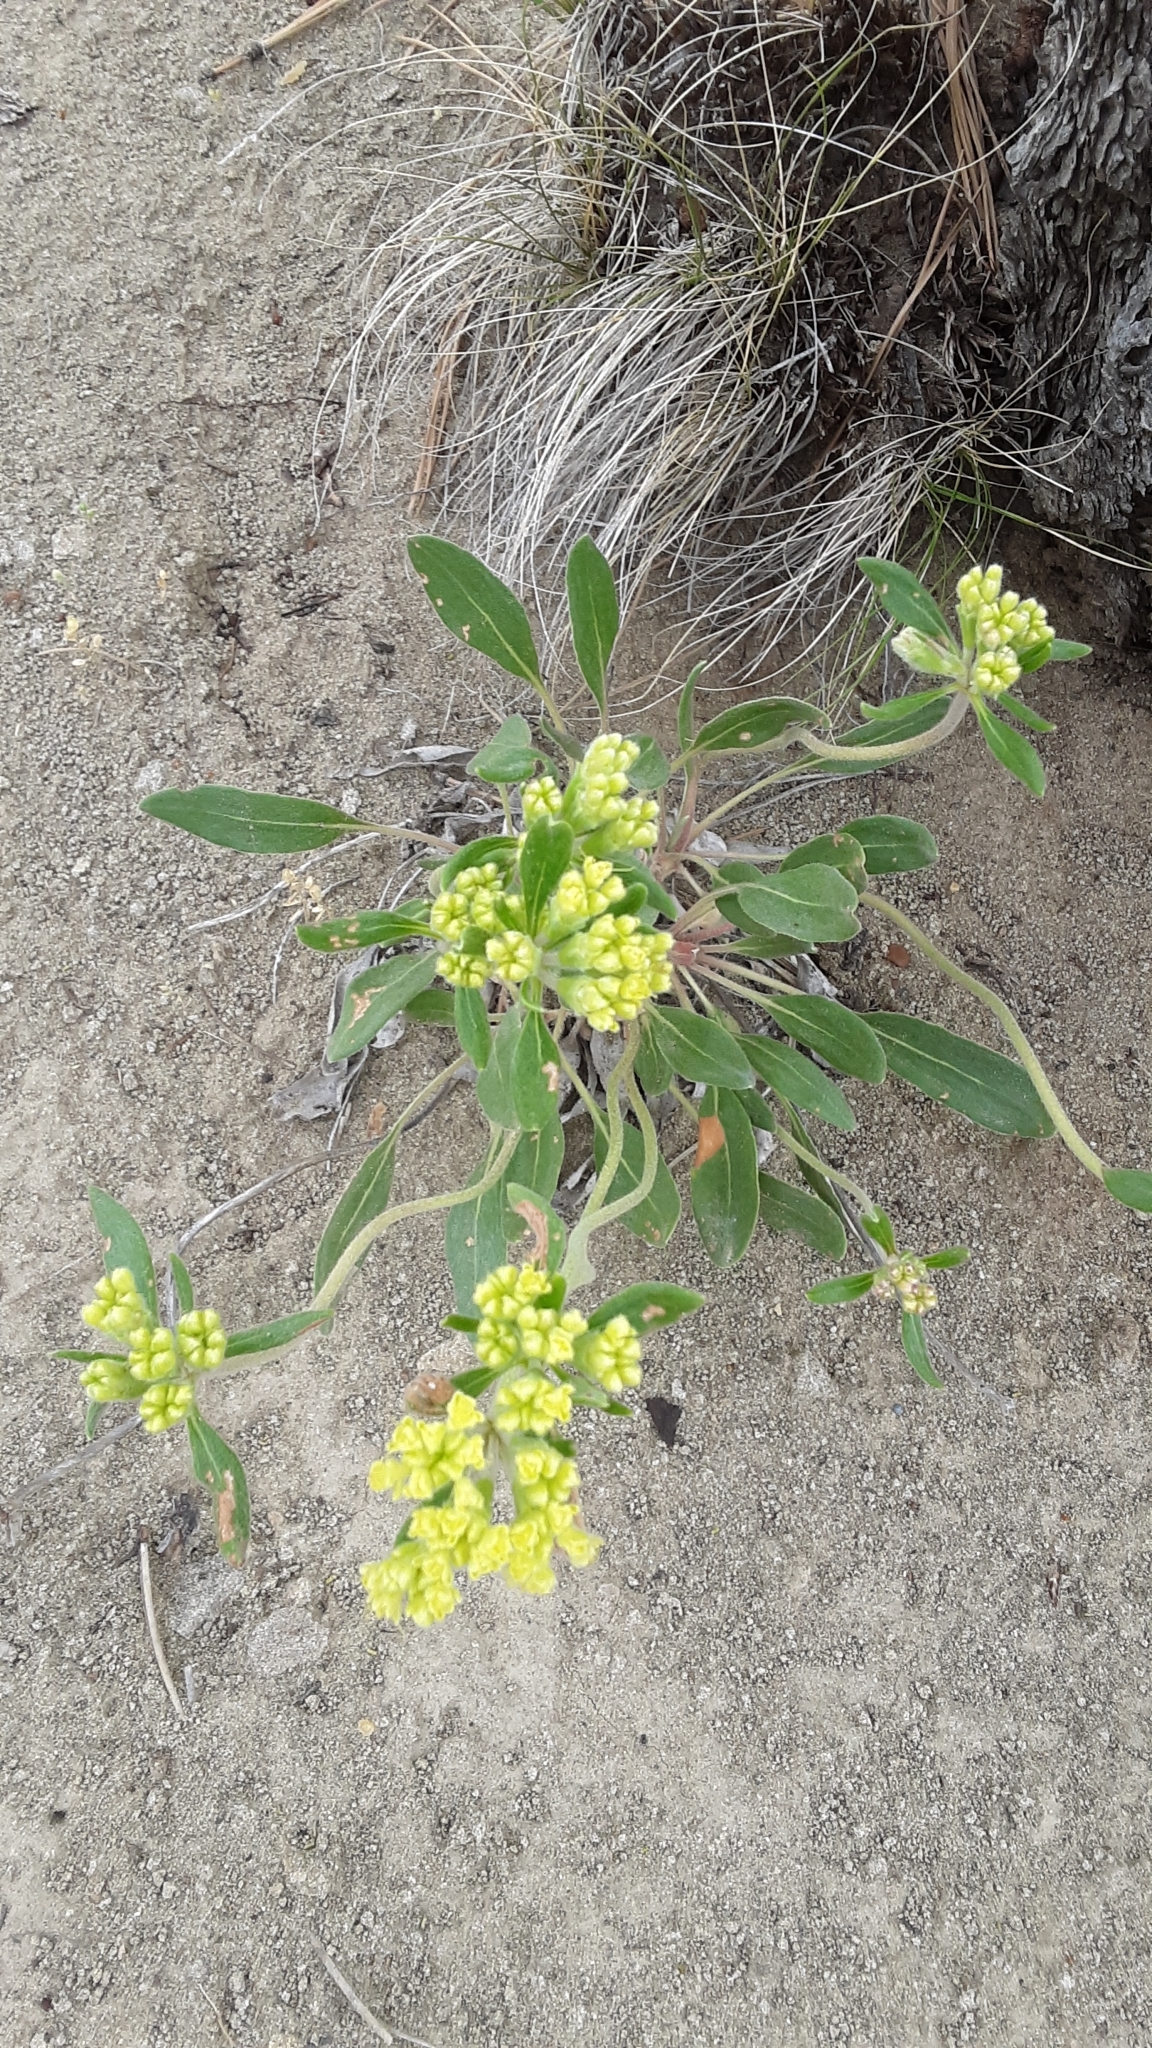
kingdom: Plantae
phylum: Tracheophyta
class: Magnoliopsida
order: Caryophyllales
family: Polygonaceae
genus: Eriogonum
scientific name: Eriogonum flavum
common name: Alpine golden wild buckwheat
